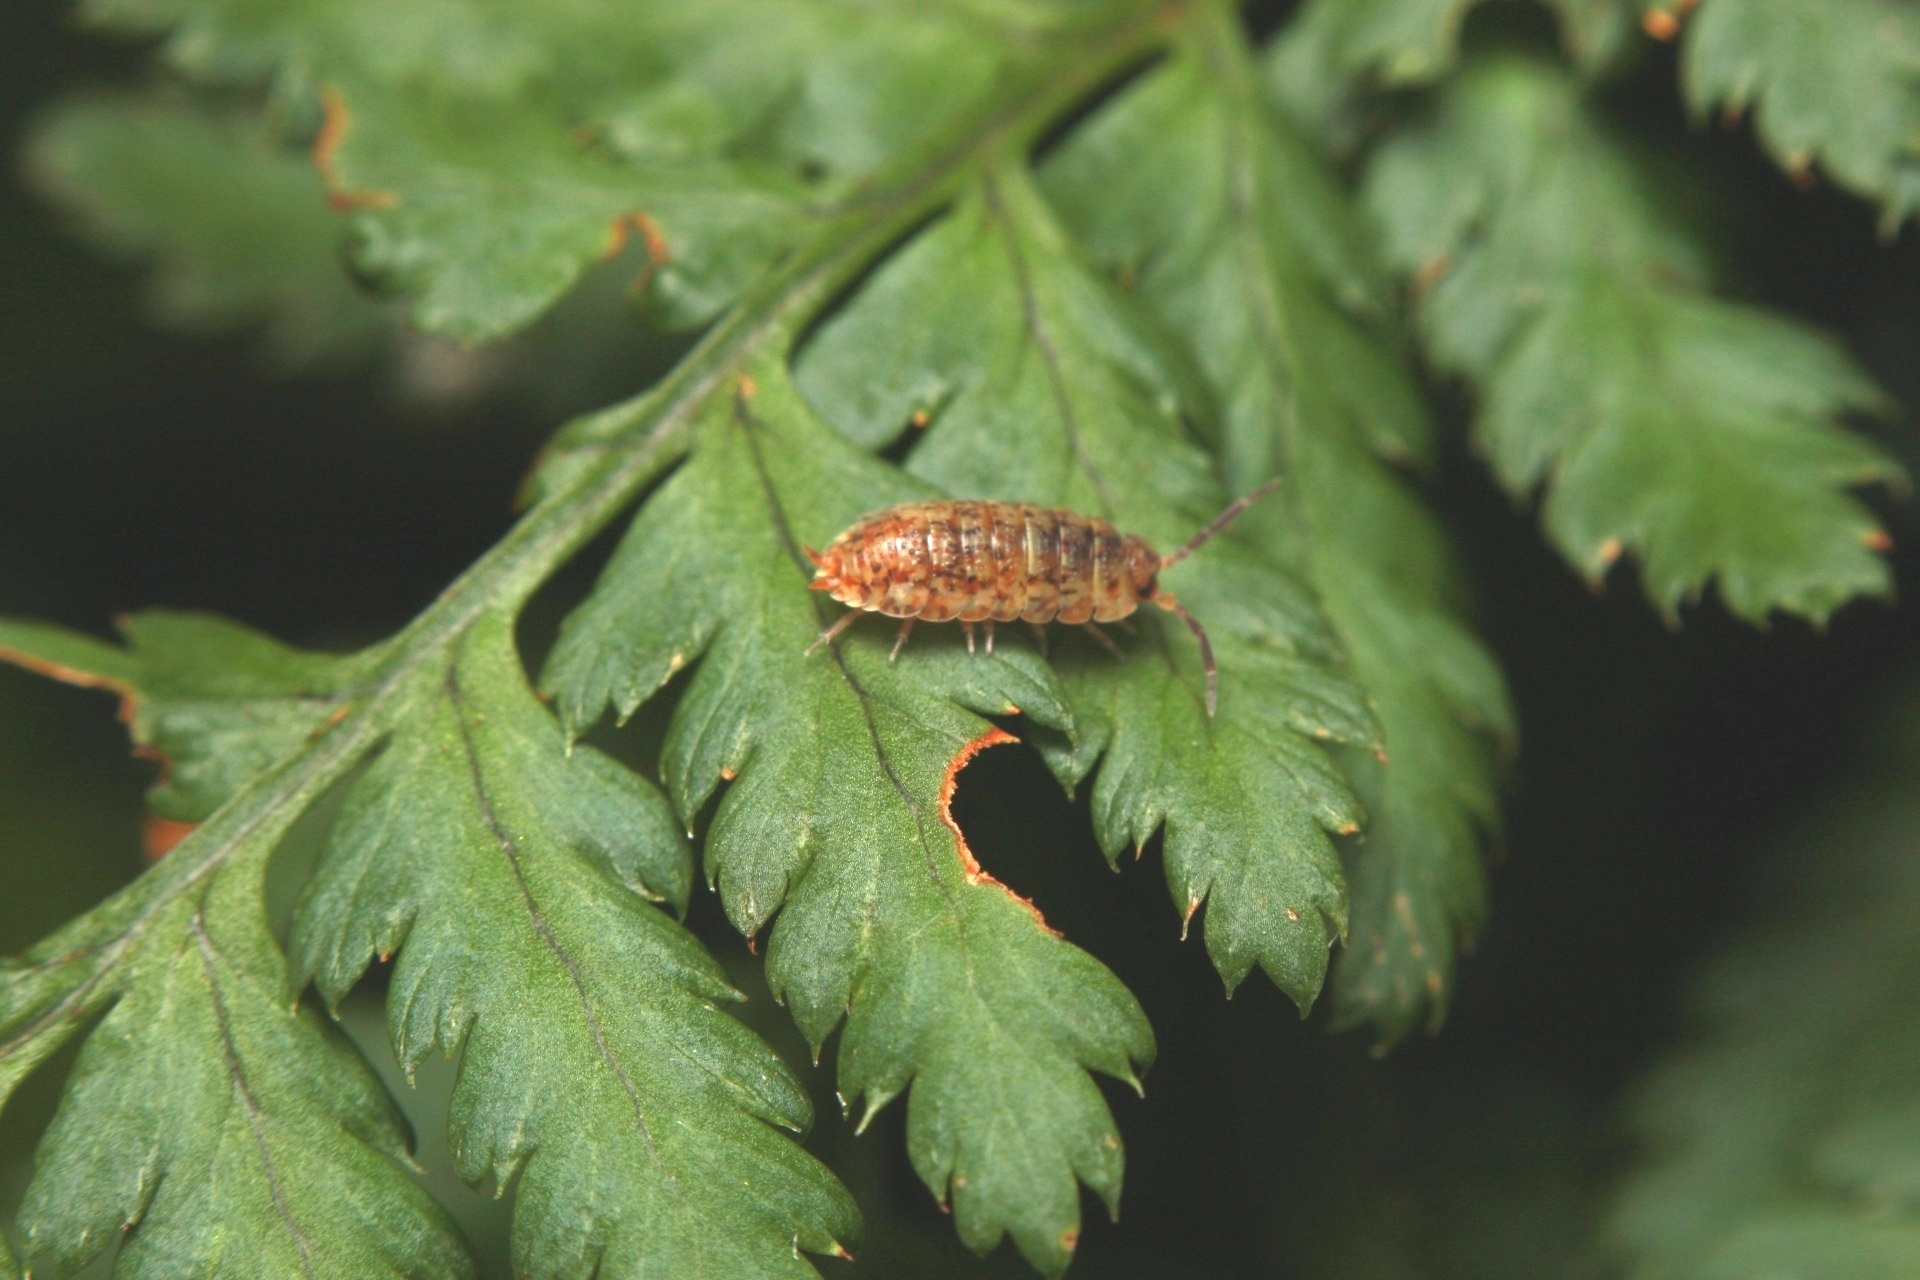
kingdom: Animalia
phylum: Arthropoda
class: Malacostraca
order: Isopoda
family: Porcellionidae
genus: Porcellio
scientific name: Porcellio scaber
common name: Common rough woodlouse
